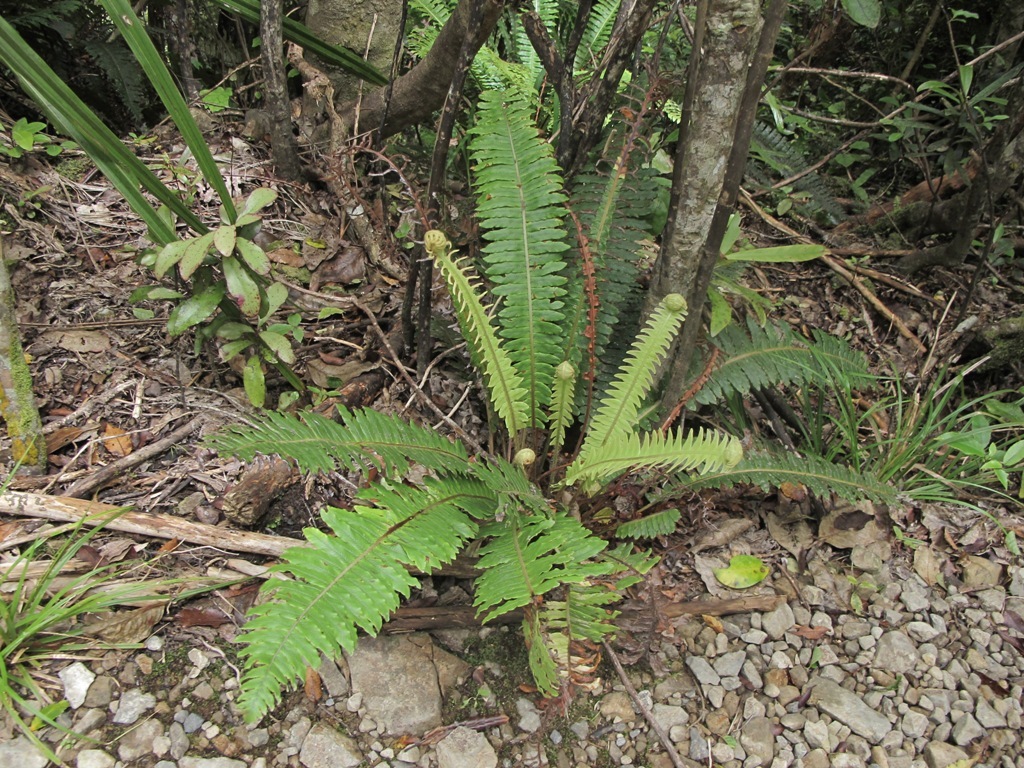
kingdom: Plantae
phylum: Tracheophyta
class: Polypodiopsida
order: Polypodiales
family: Blechnaceae
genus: Lomaria
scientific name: Lomaria discolor
